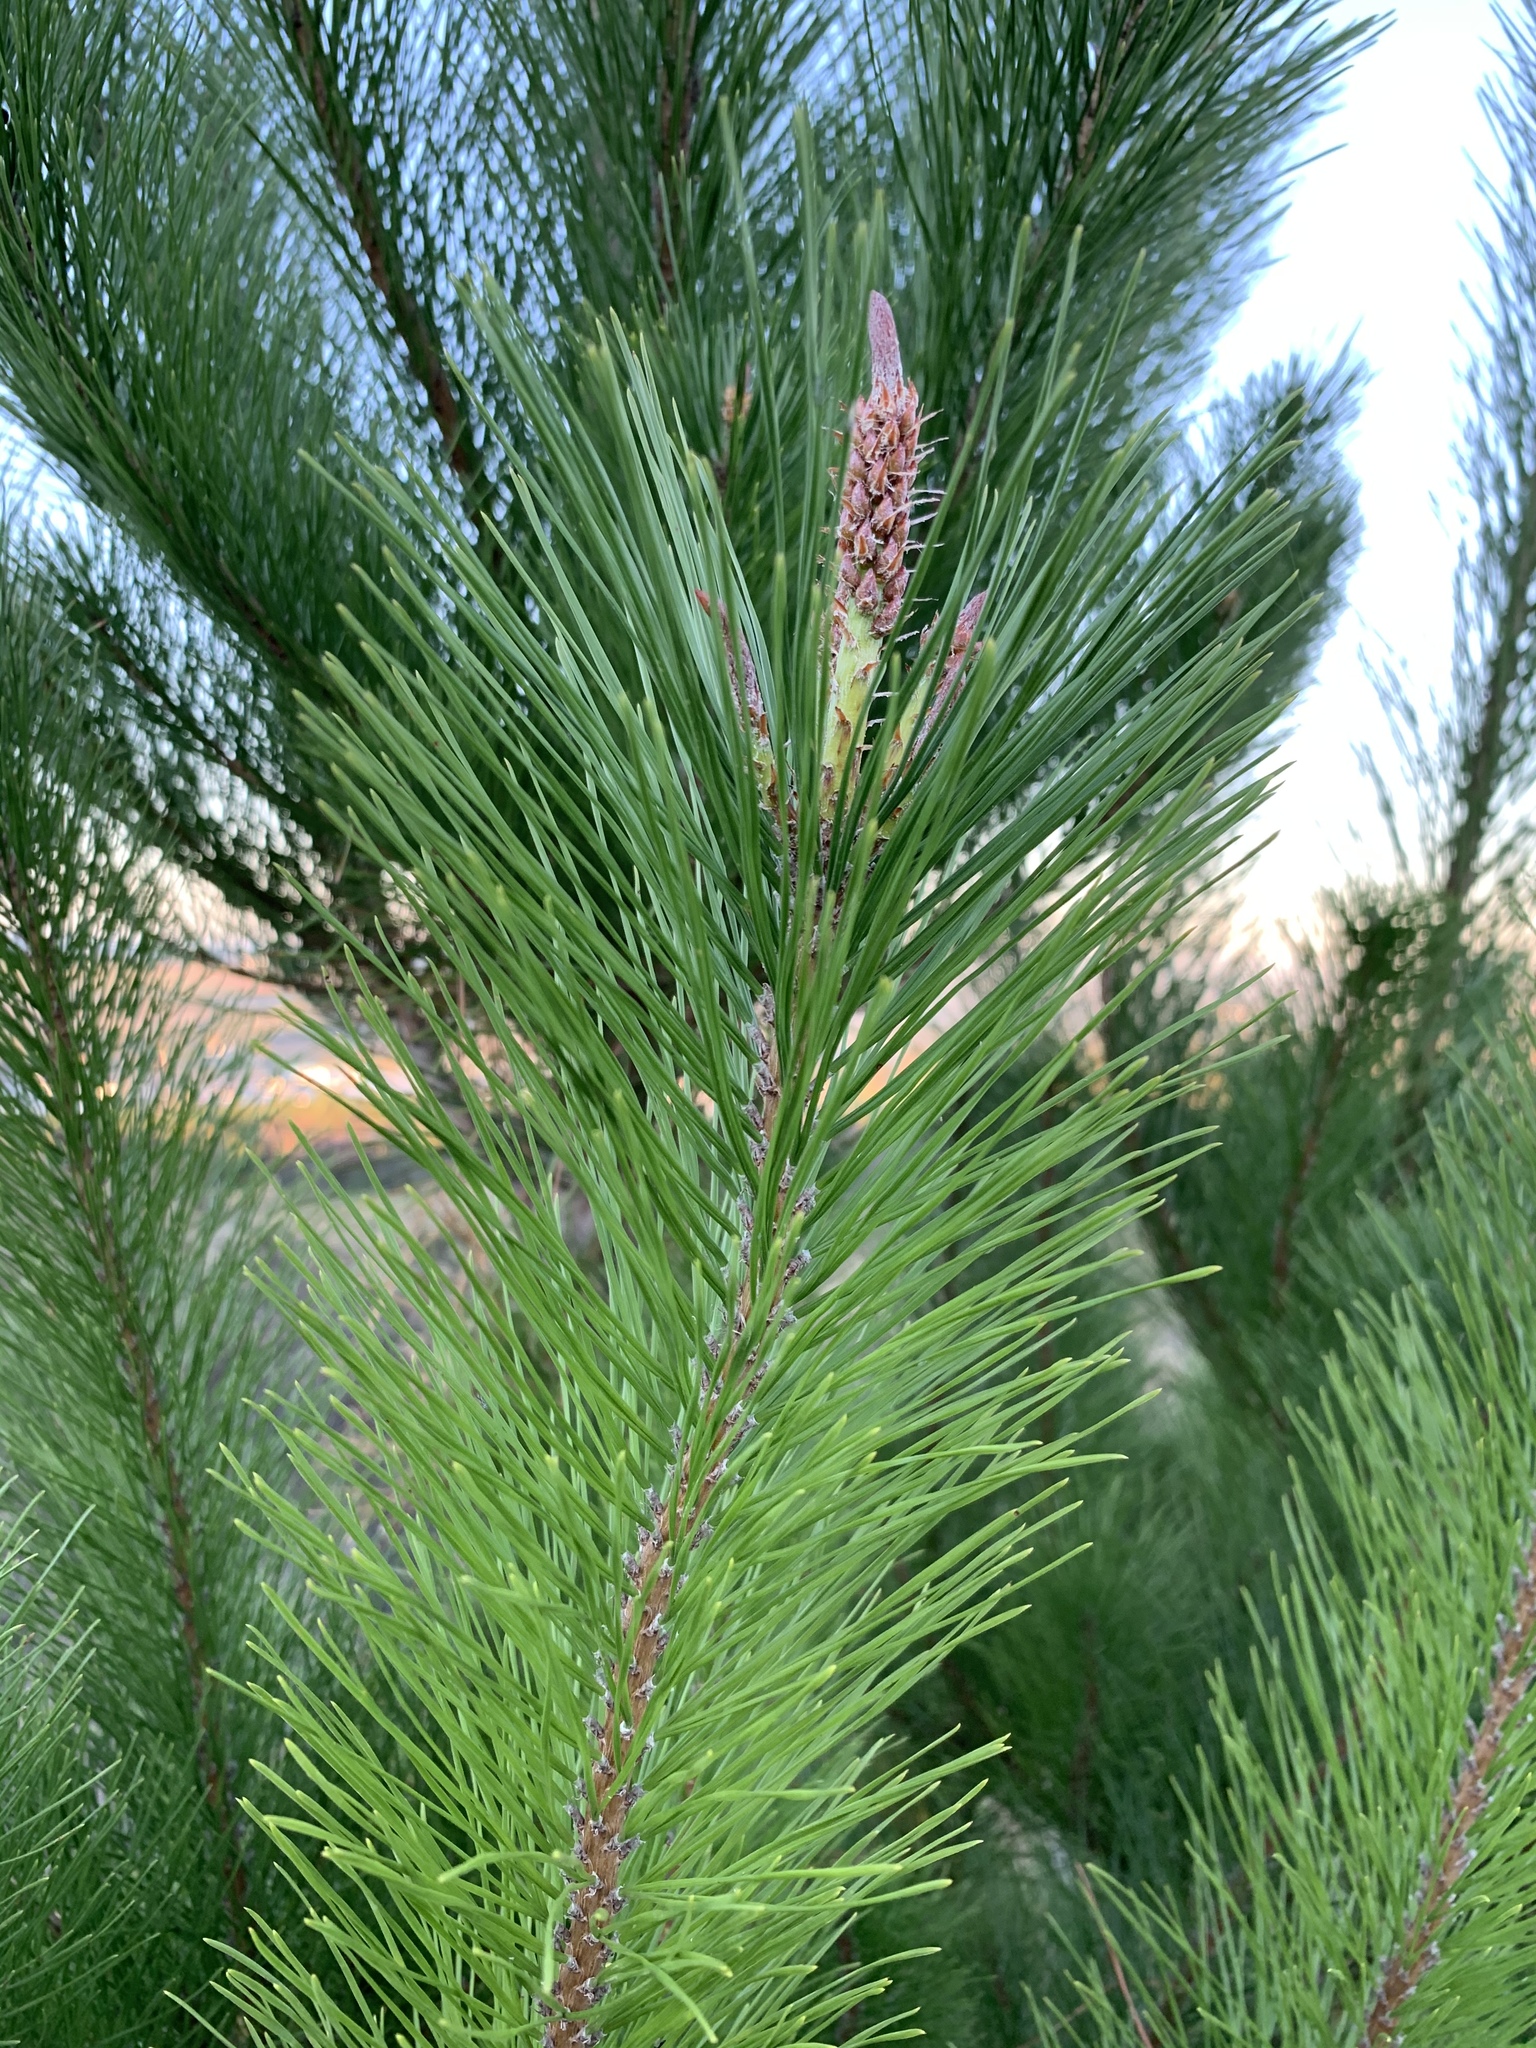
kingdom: Plantae
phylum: Tracheophyta
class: Pinopsida
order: Pinales
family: Pinaceae
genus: Pinus
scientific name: Pinus radiata
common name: Monterey pine
